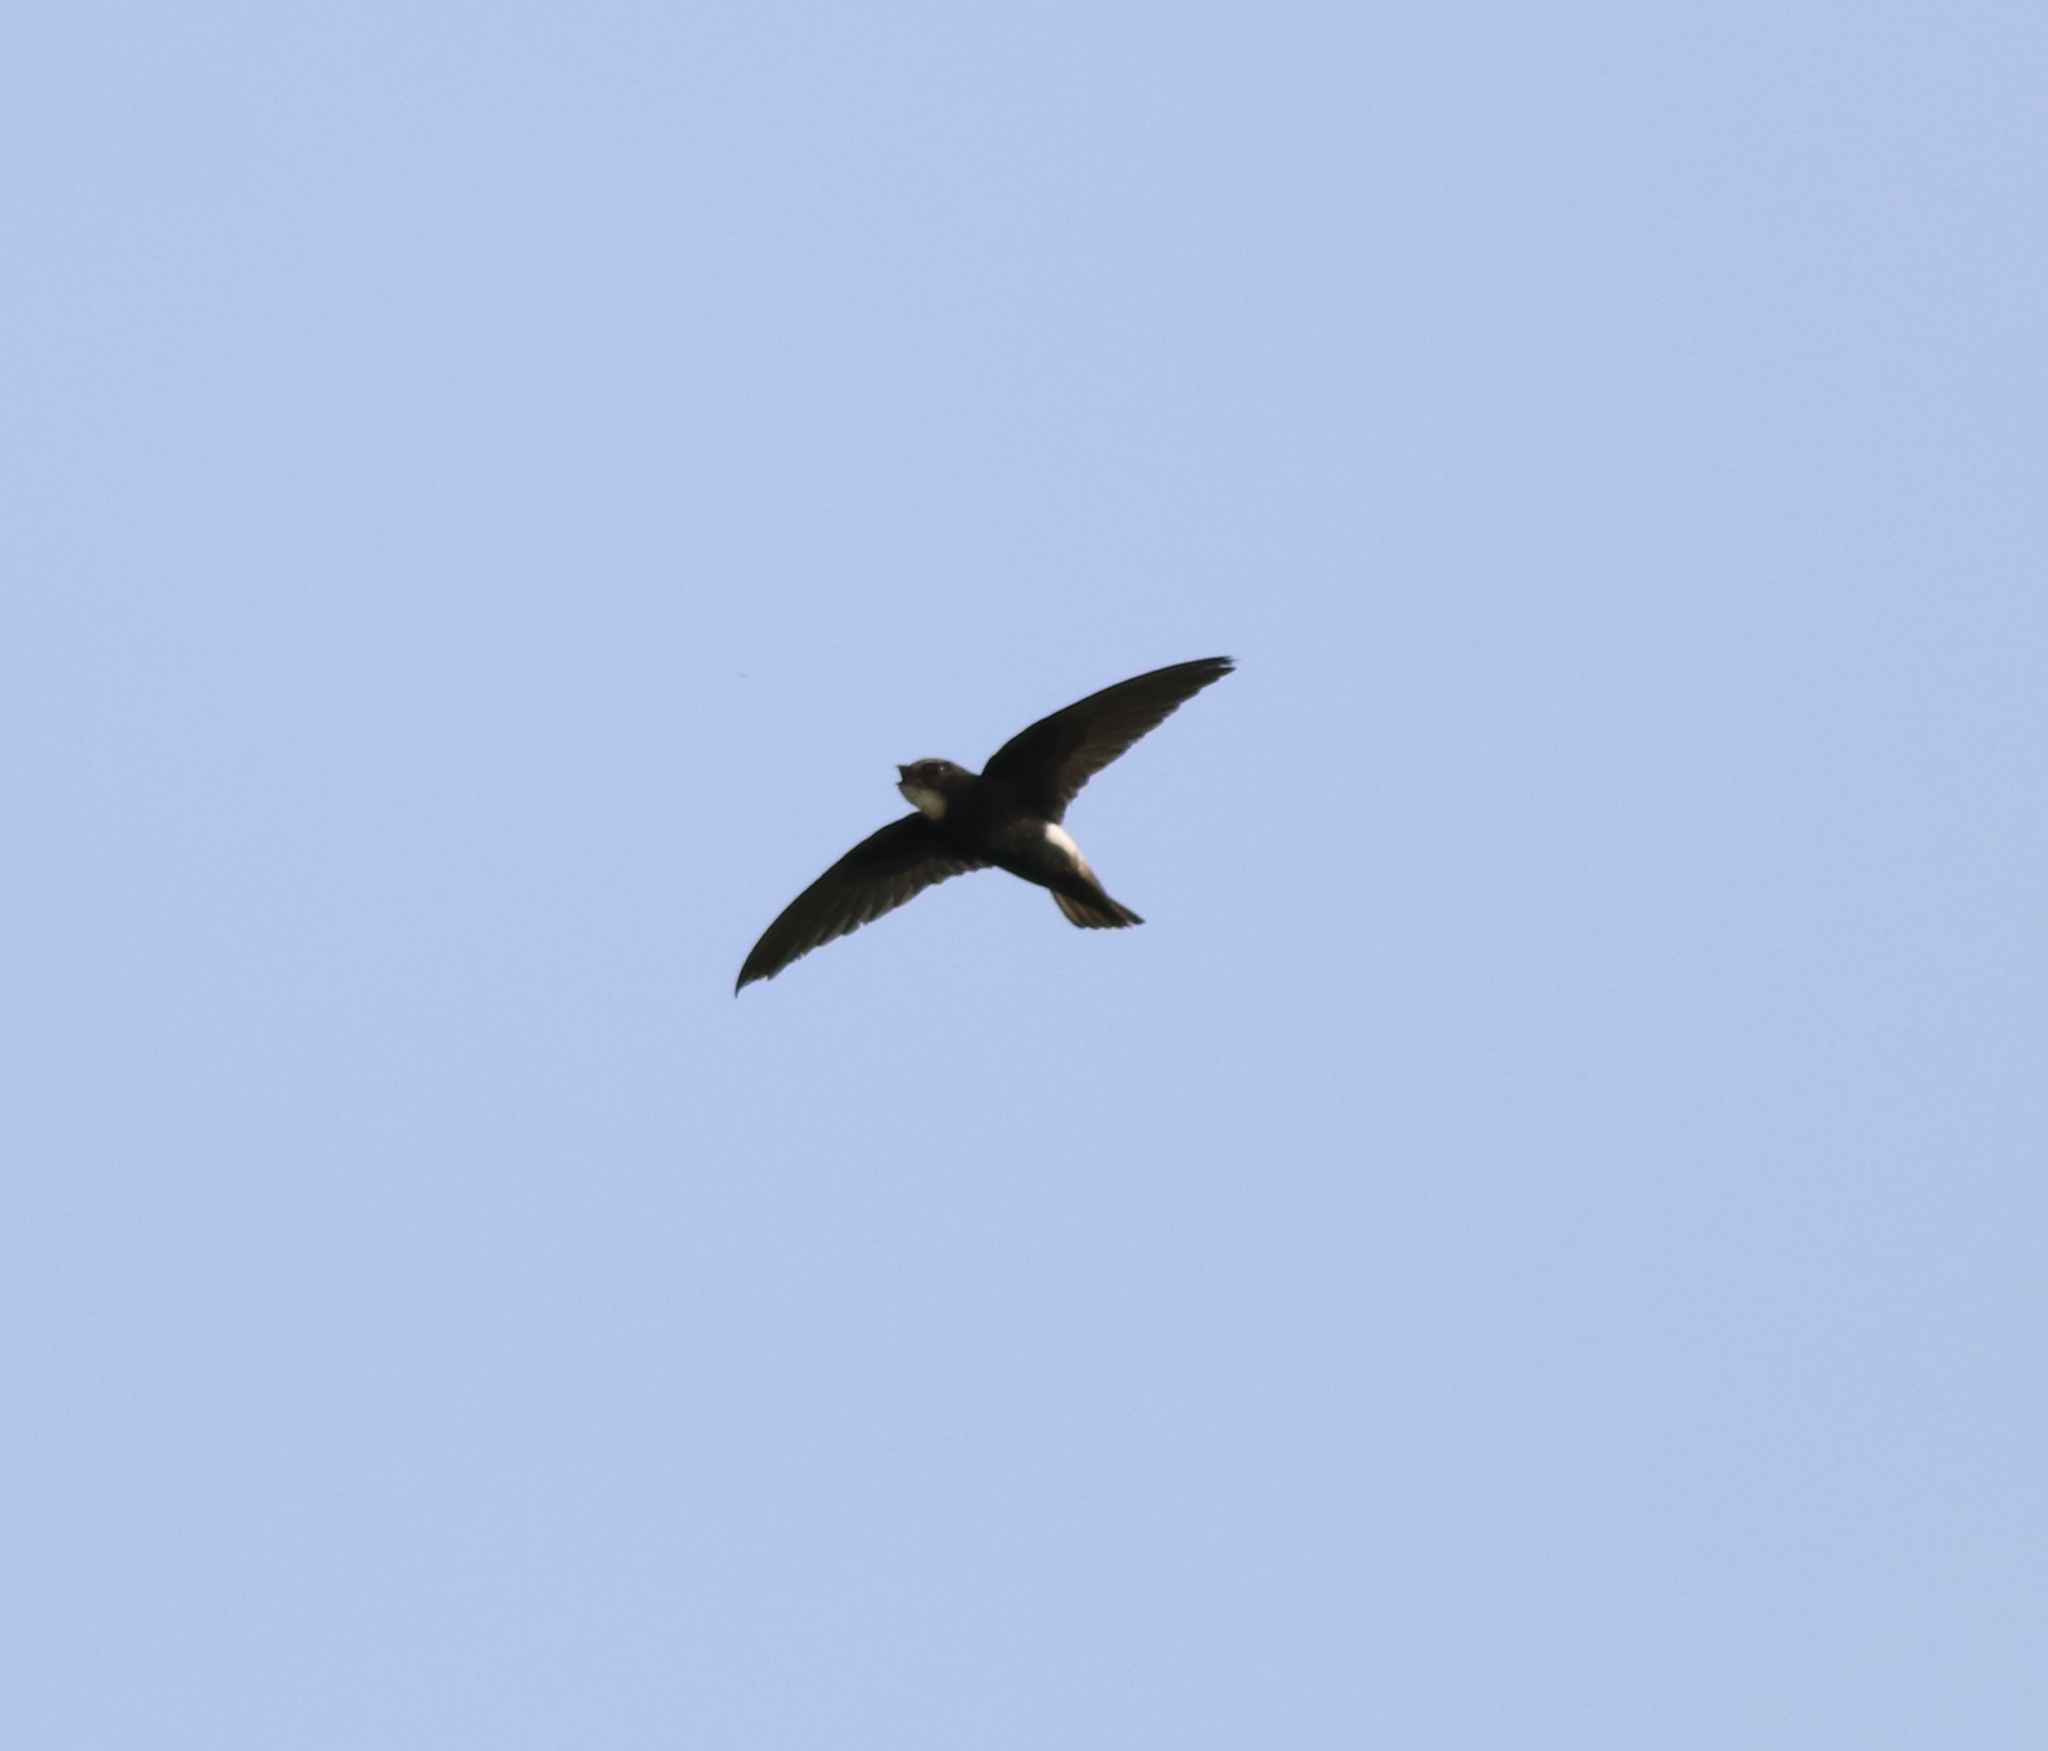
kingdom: Animalia
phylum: Chordata
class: Aves
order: Apodiformes
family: Apodidae
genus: Apus
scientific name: Apus affinis
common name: Little swift
